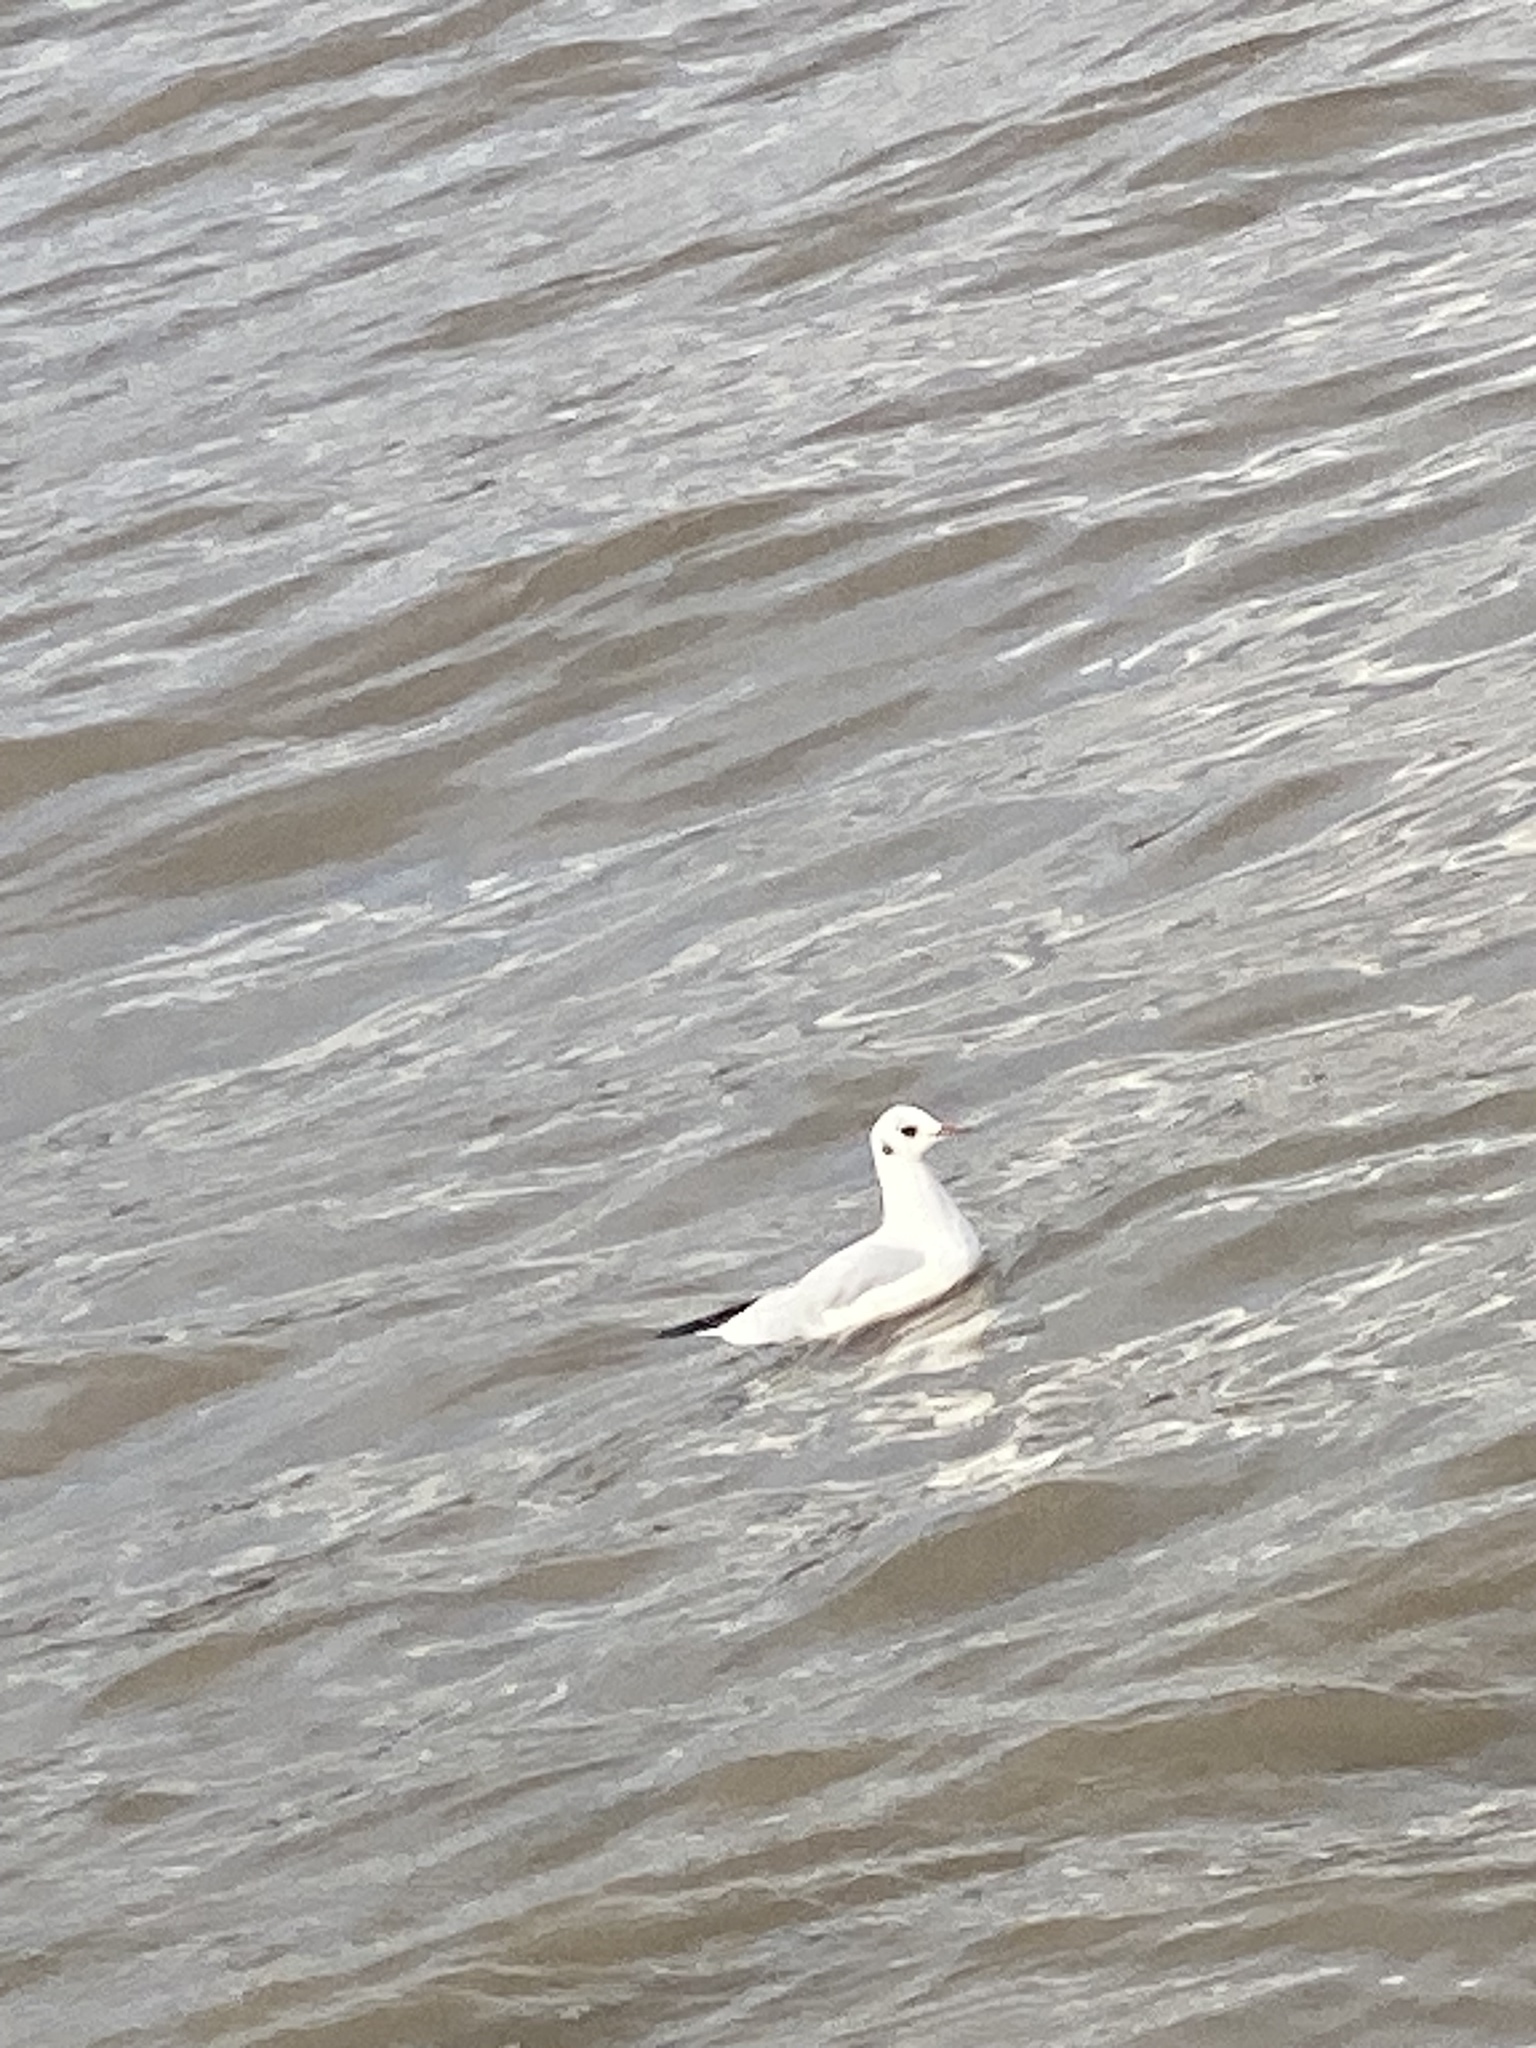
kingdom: Animalia
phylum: Chordata
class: Aves
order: Charadriiformes
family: Laridae
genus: Chroicocephalus
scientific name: Chroicocephalus ridibundus
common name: Black-headed gull
